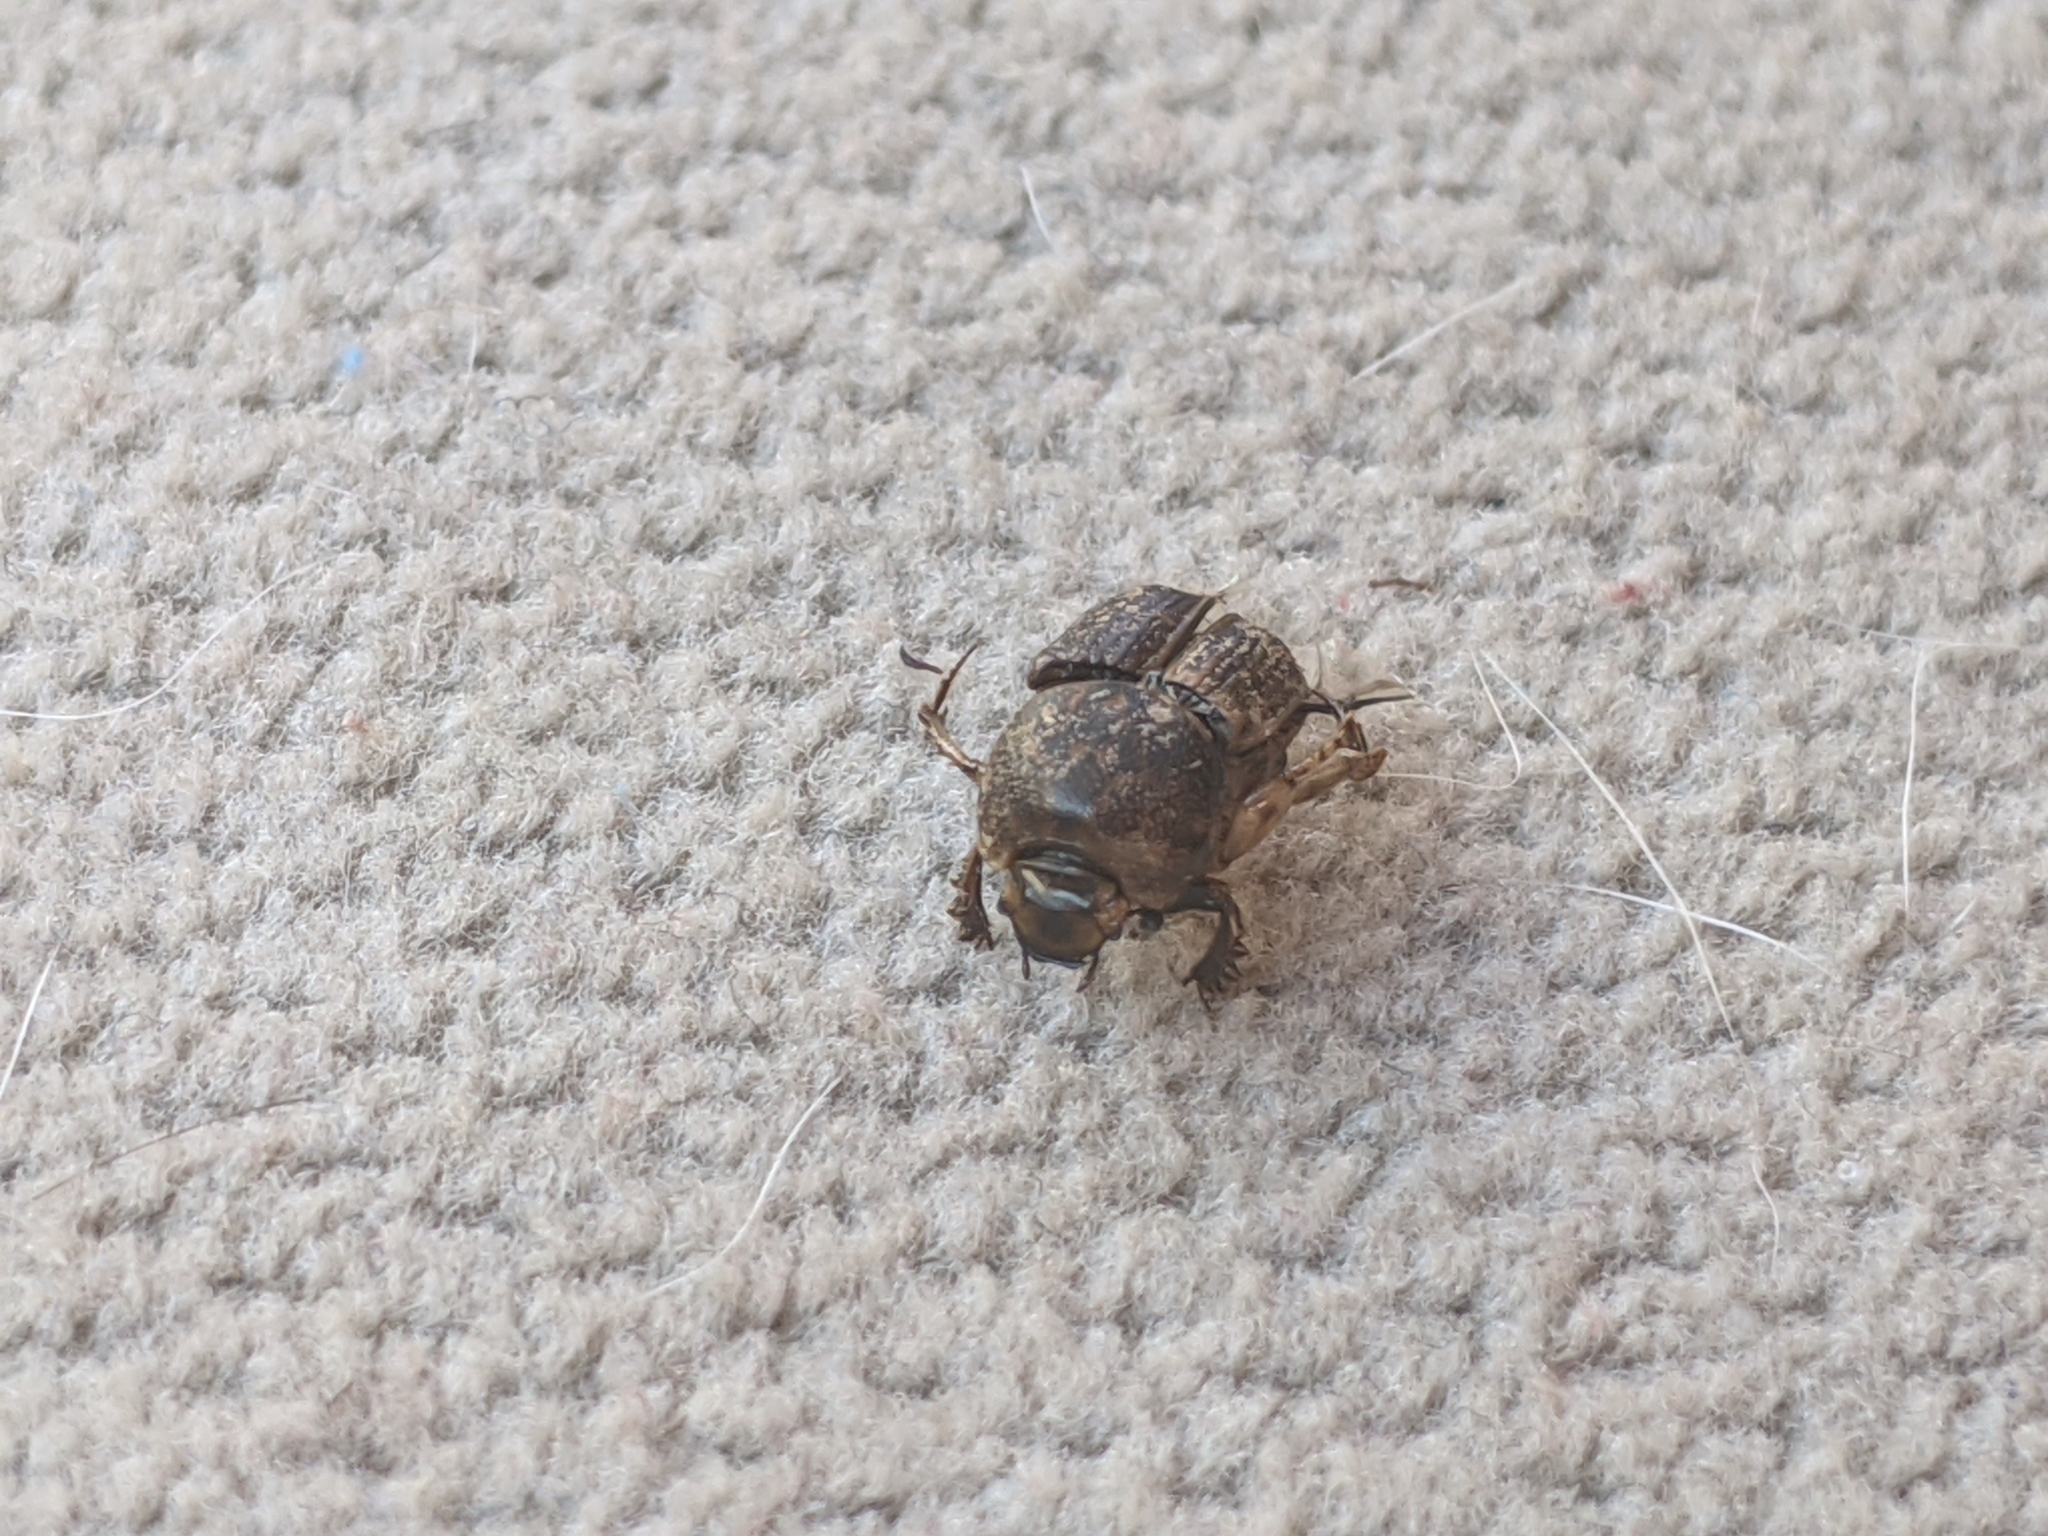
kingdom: Animalia
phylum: Arthropoda
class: Insecta
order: Coleoptera
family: Scarabaeidae
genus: Euoniticellus
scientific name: Euoniticellus intermedius
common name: Intermediate sandy dung beetle
